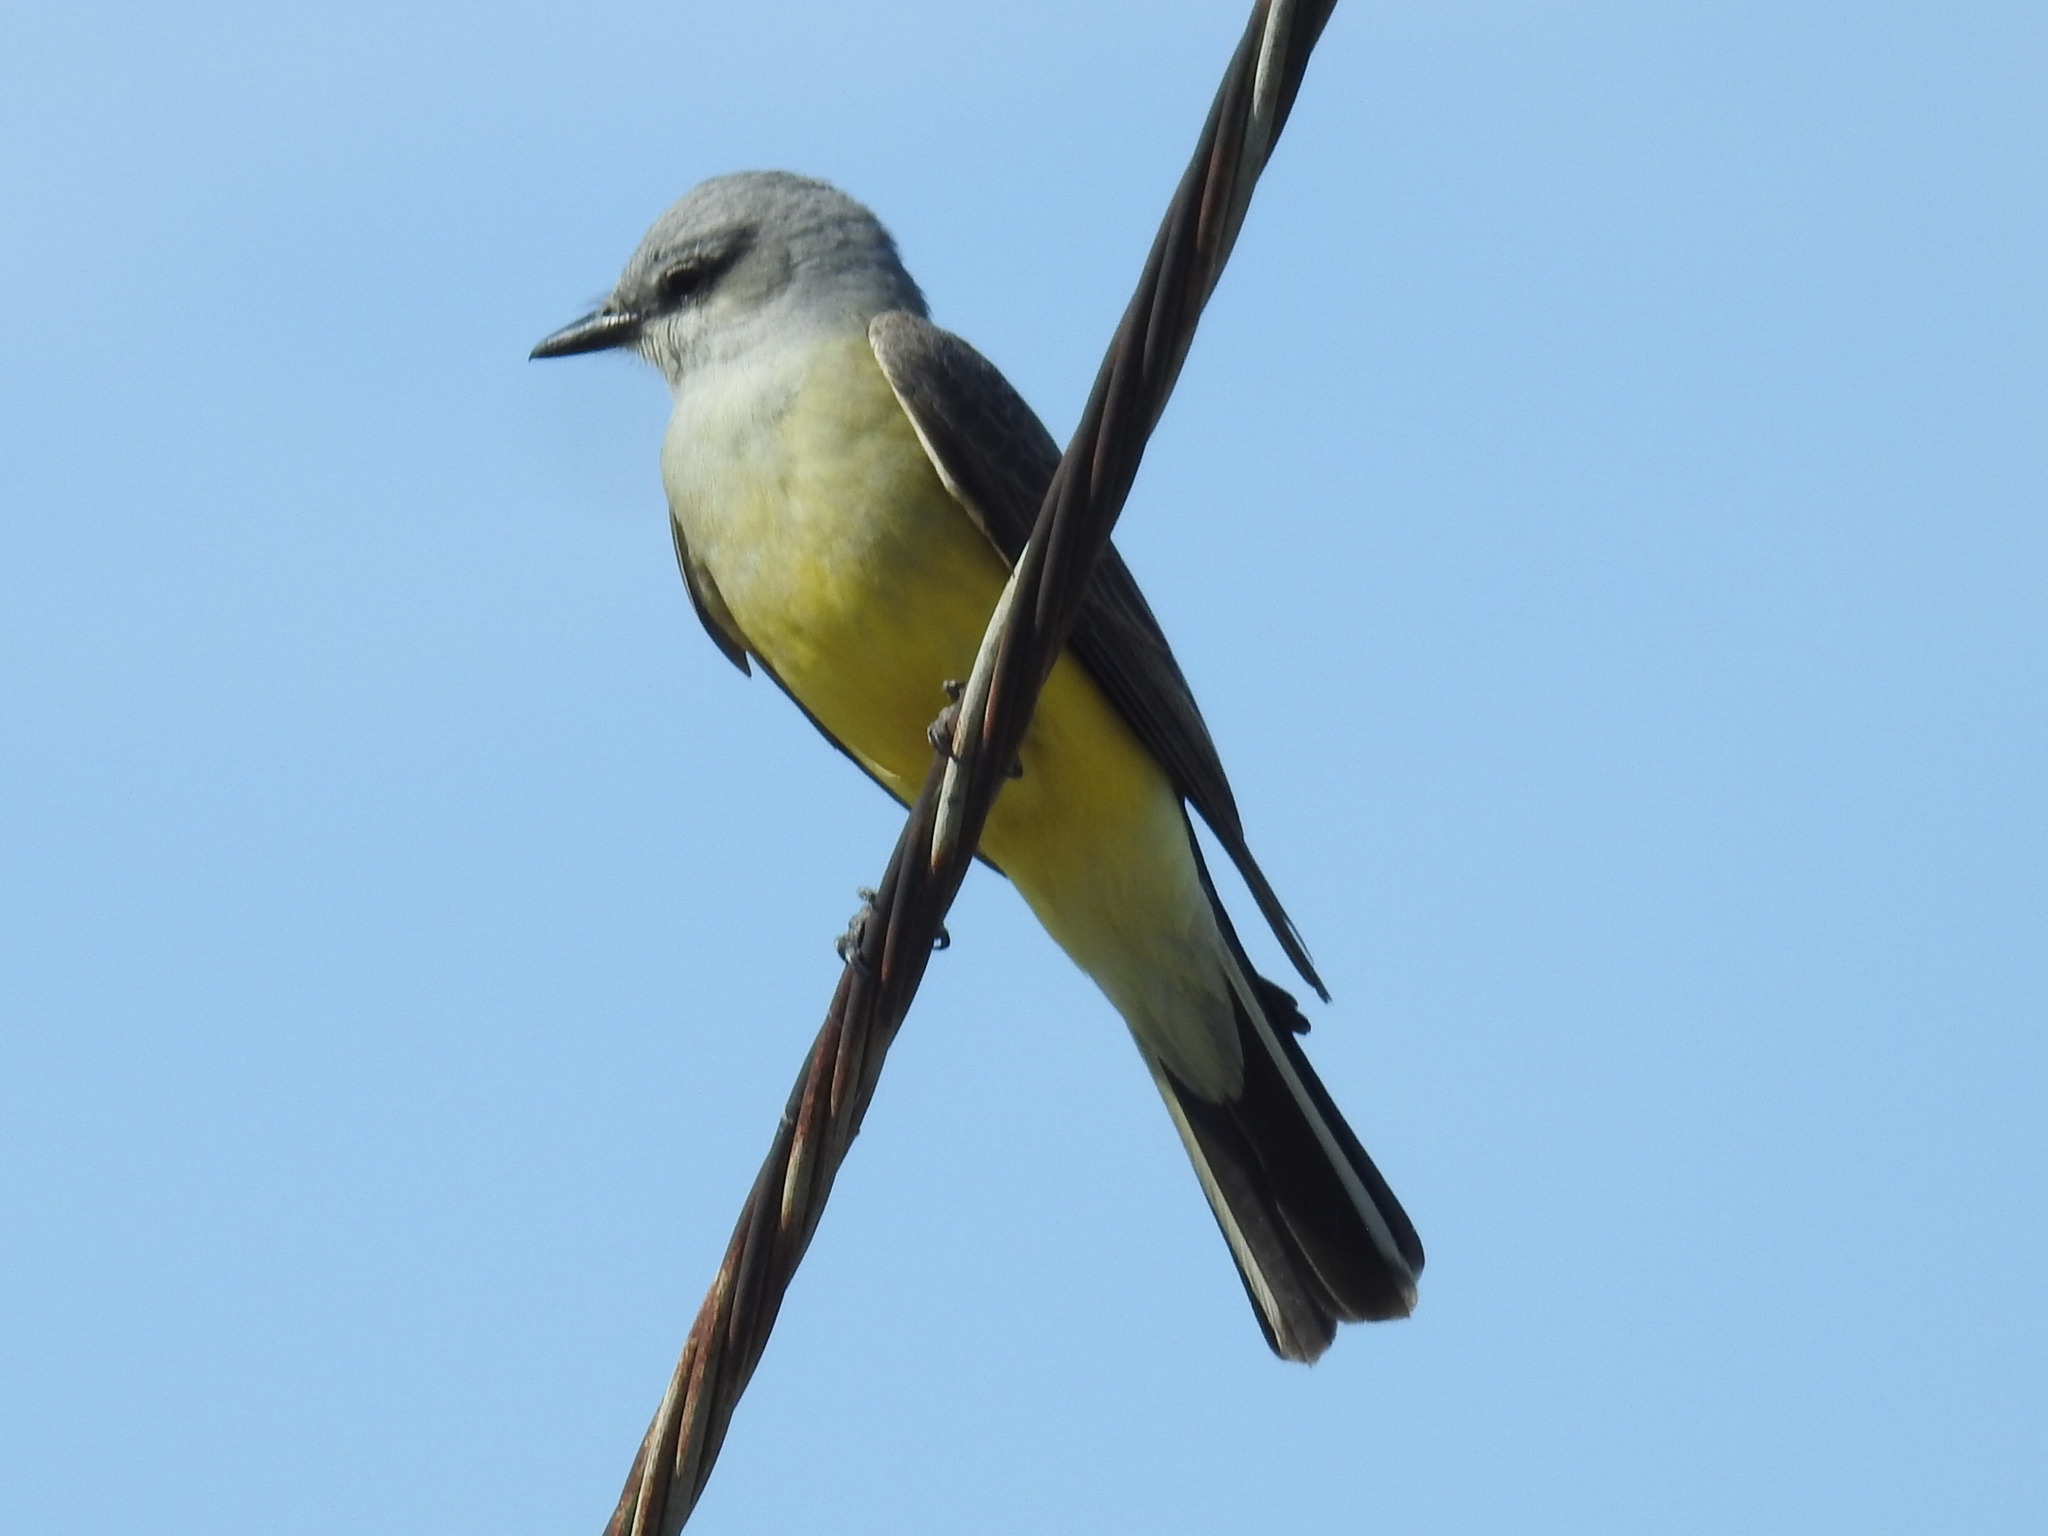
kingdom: Animalia
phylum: Chordata
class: Aves
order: Passeriformes
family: Tyrannidae
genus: Tyrannus
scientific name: Tyrannus verticalis
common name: Western kingbird
